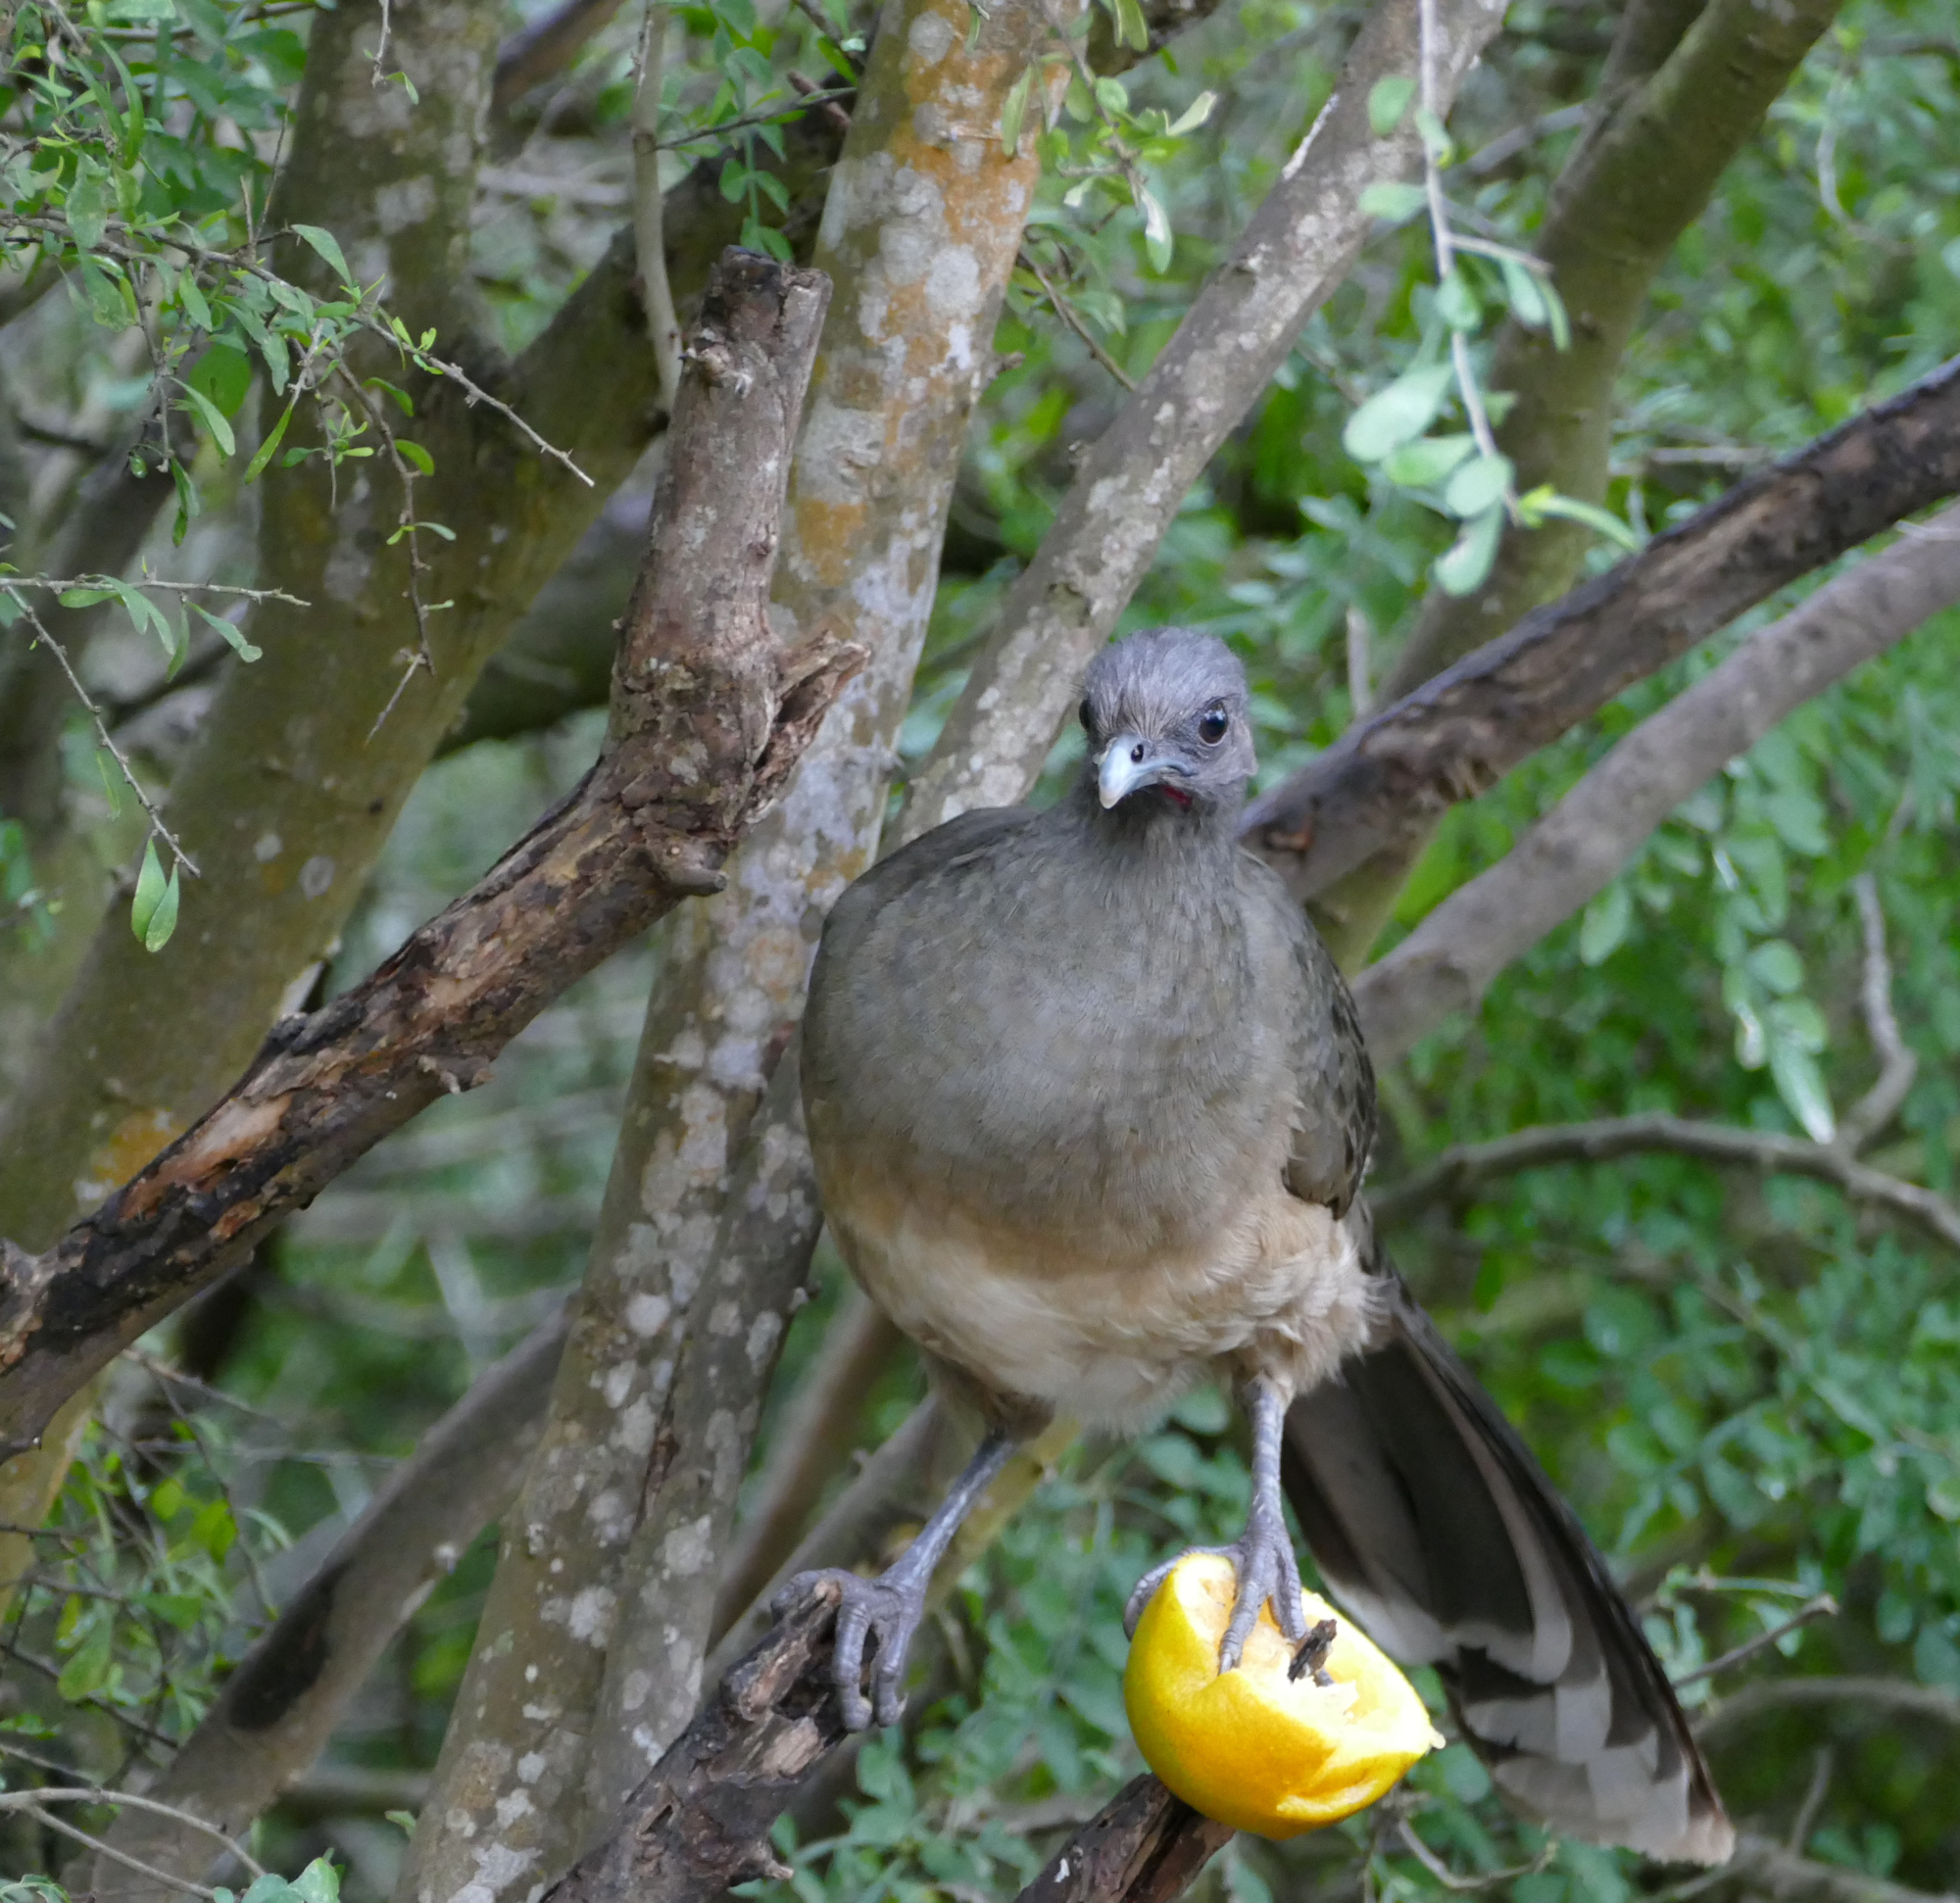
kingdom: Animalia
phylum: Chordata
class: Aves
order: Galliformes
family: Cracidae
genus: Ortalis
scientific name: Ortalis vetula
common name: Plain chachalaca
